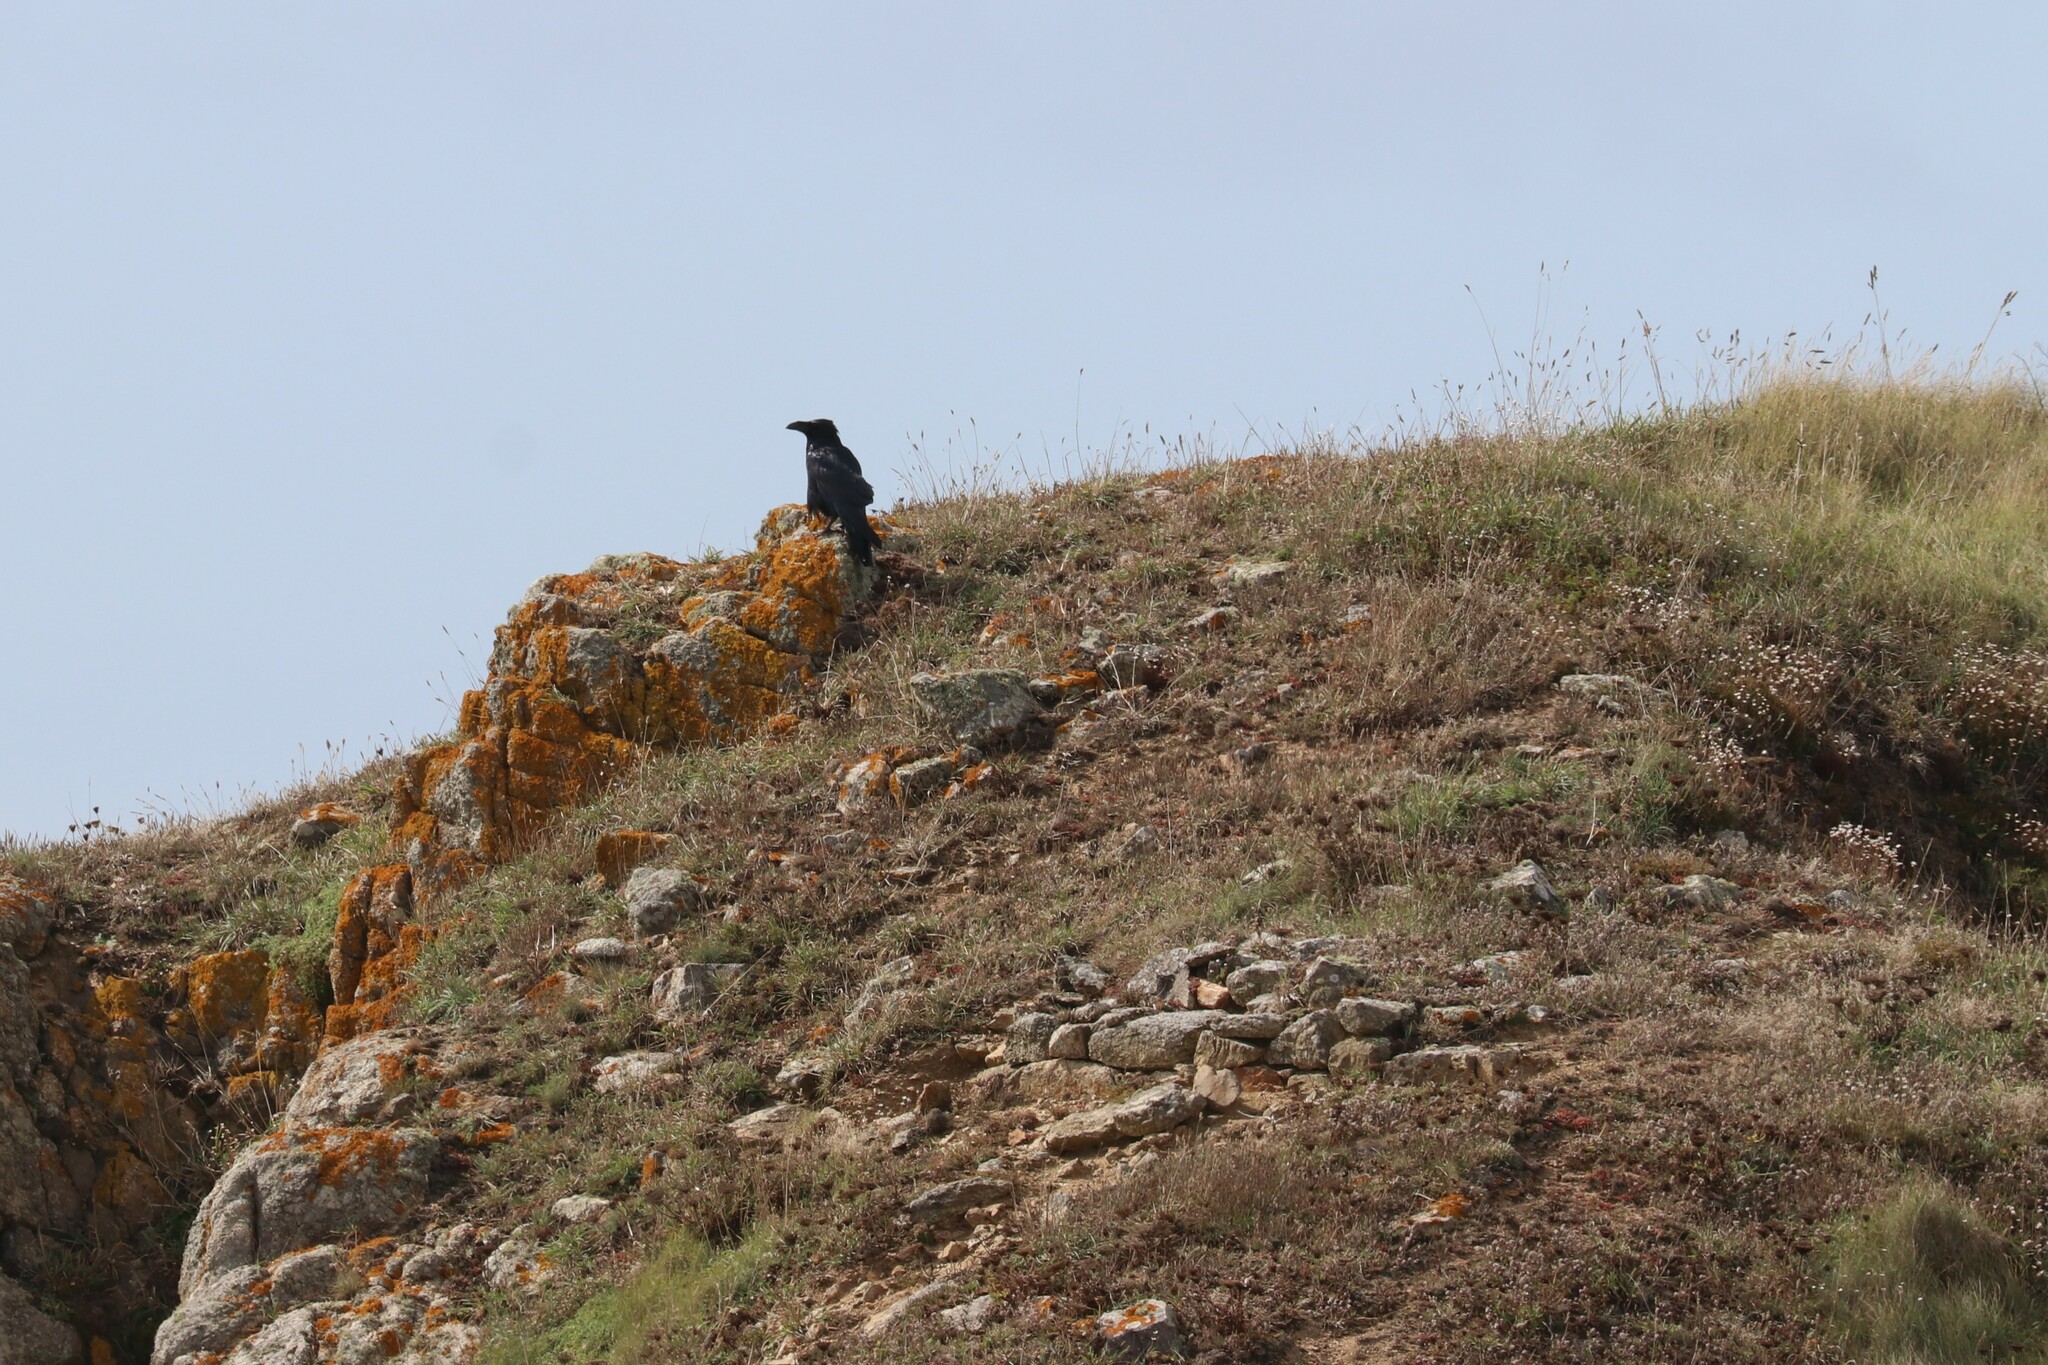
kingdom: Animalia
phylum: Chordata
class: Aves
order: Passeriformes
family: Corvidae
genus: Corvus
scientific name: Corvus corax
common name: Common raven
